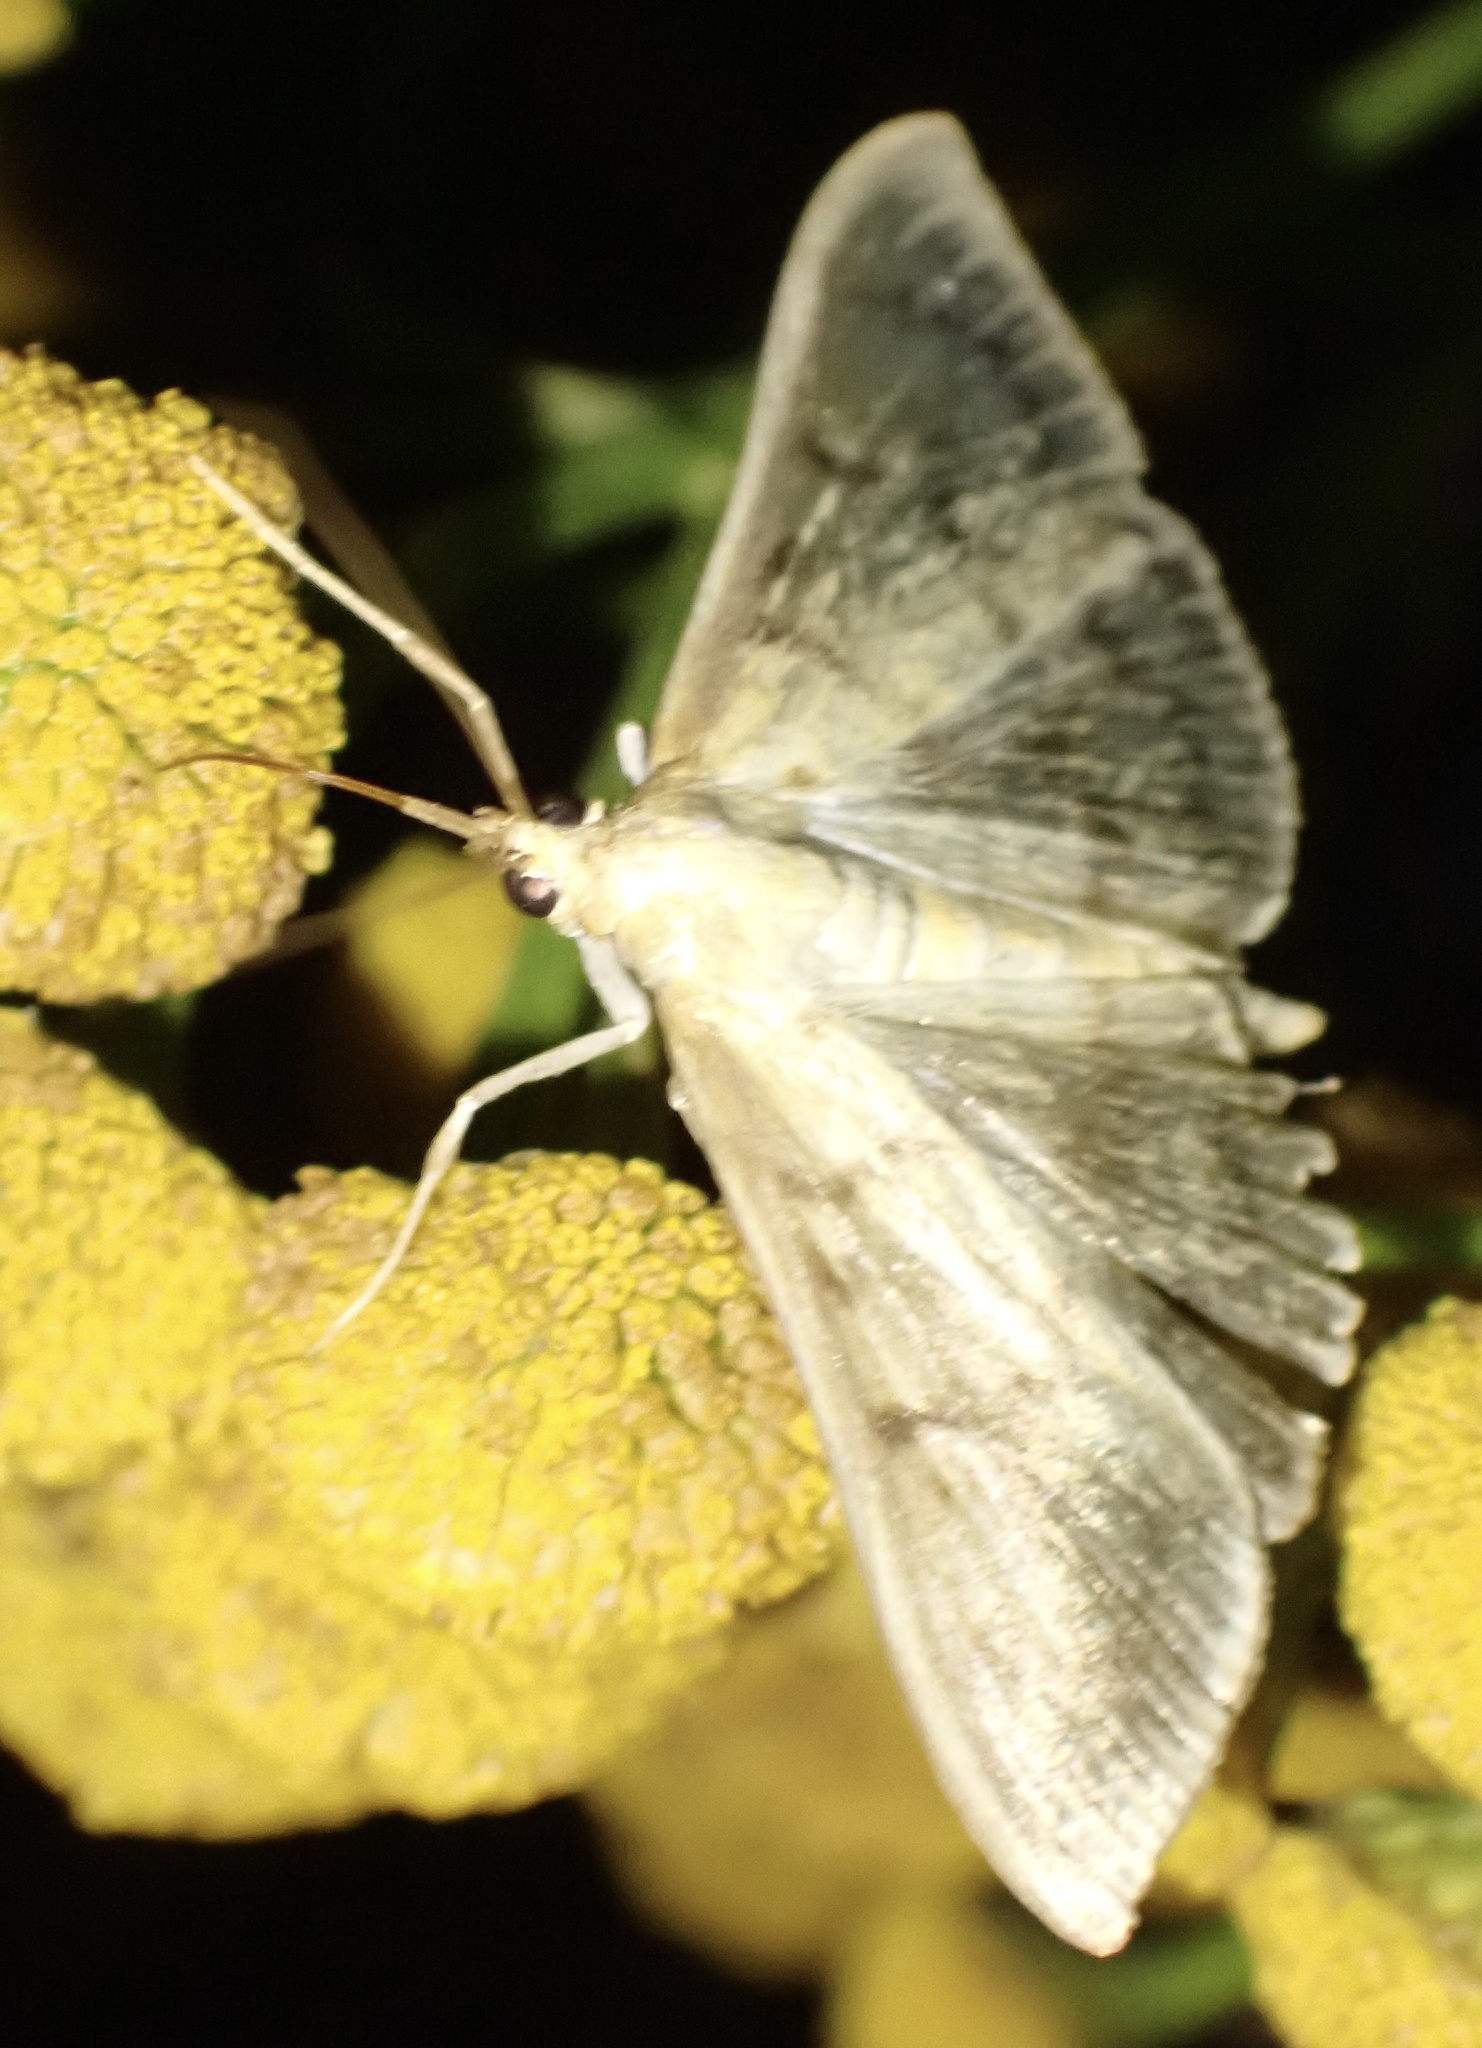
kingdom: Animalia
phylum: Arthropoda
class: Insecta
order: Lepidoptera
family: Crambidae
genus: Patania
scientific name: Patania ruralis
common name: Mother of pearl
